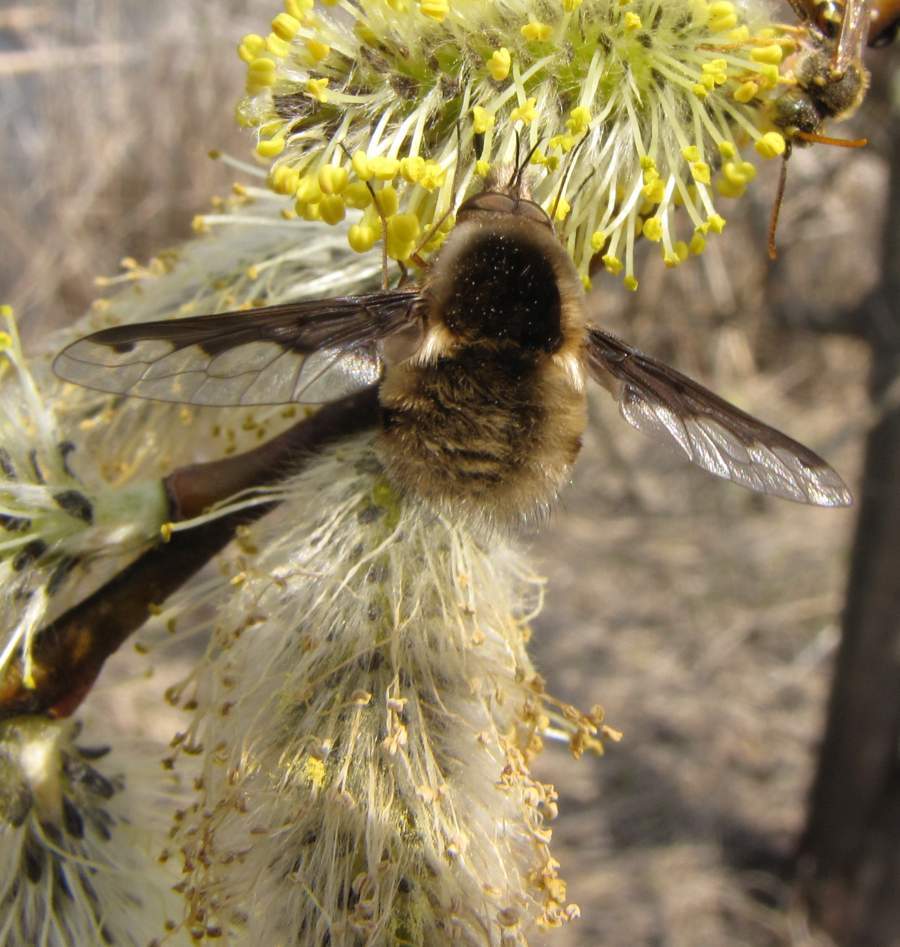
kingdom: Animalia
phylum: Arthropoda
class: Insecta
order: Diptera
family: Bombyliidae
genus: Bombylius
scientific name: Bombylius major
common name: Bee fly
